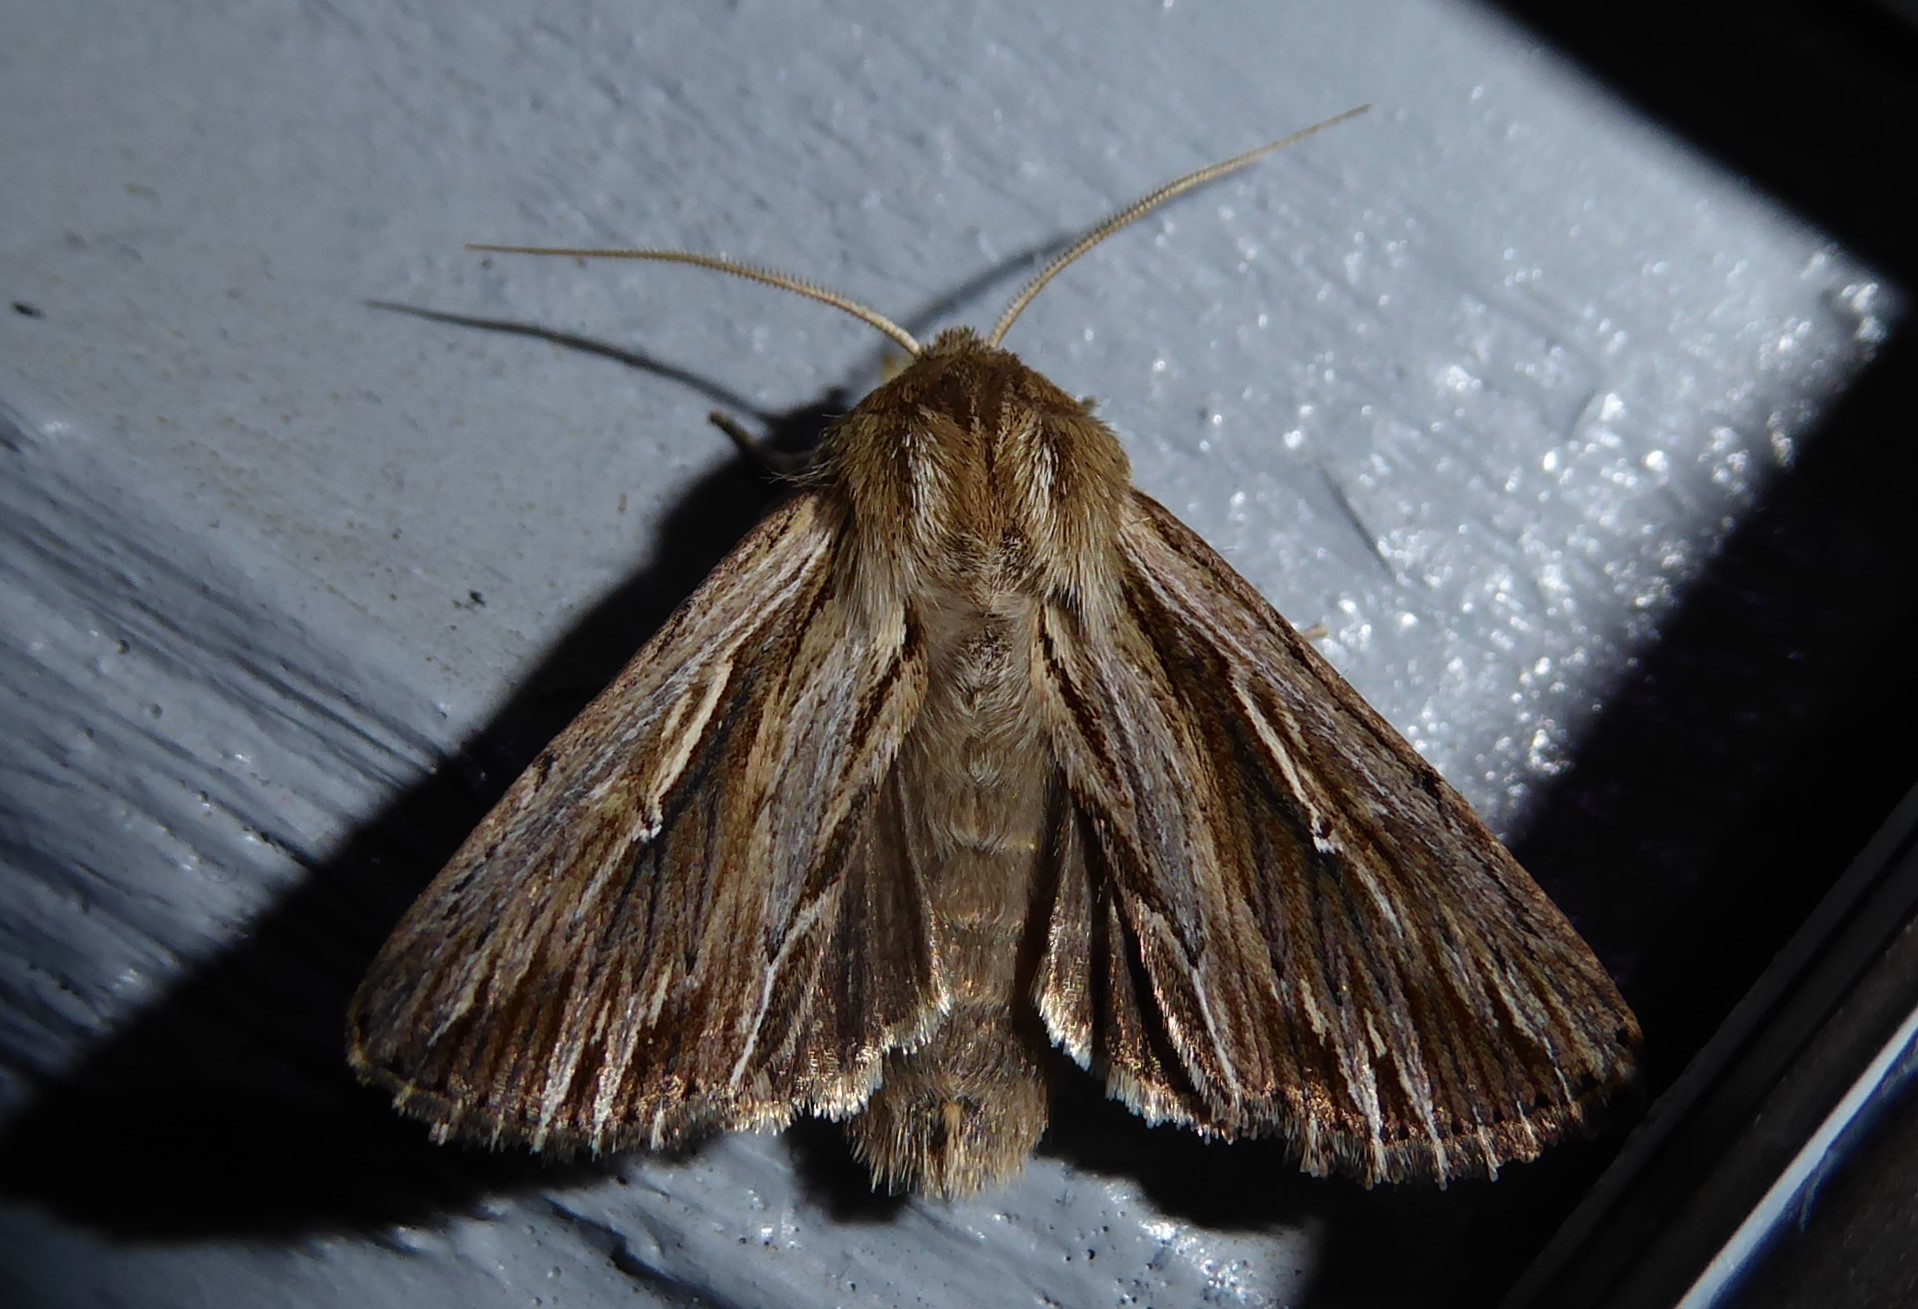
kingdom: Animalia
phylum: Arthropoda
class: Insecta
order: Lepidoptera
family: Noctuidae
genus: Persectania
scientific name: Persectania aversa
